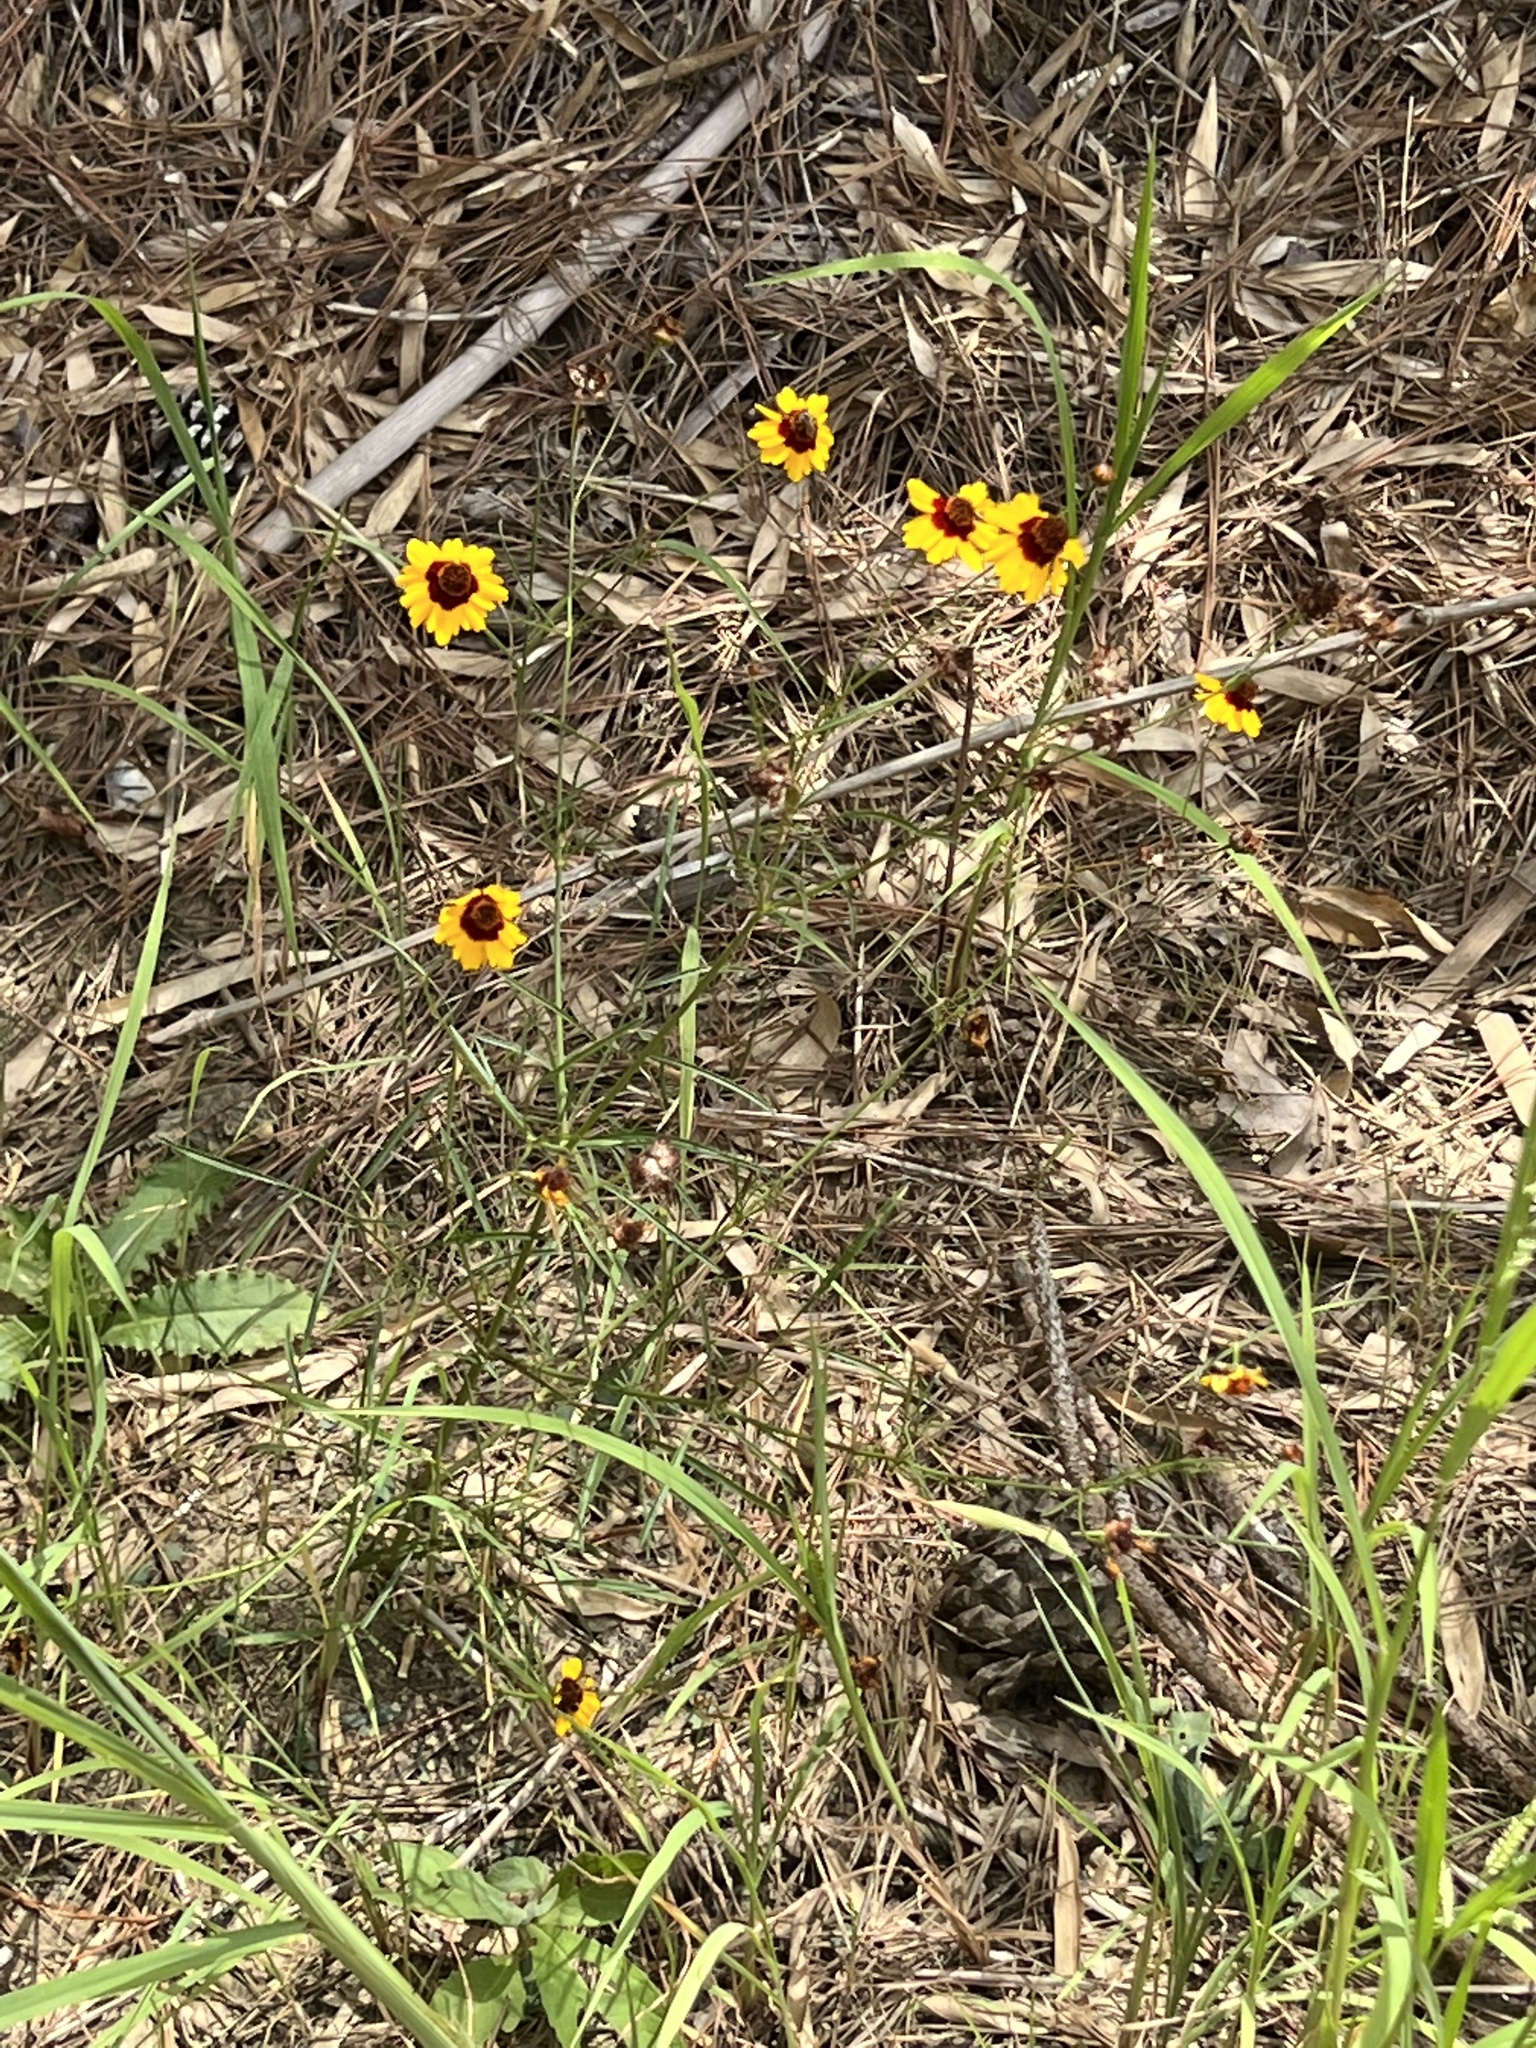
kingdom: Plantae
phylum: Tracheophyta
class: Magnoliopsida
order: Asterales
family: Asteraceae
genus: Coreopsis
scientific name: Coreopsis tinctoria
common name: Garden tickseed
